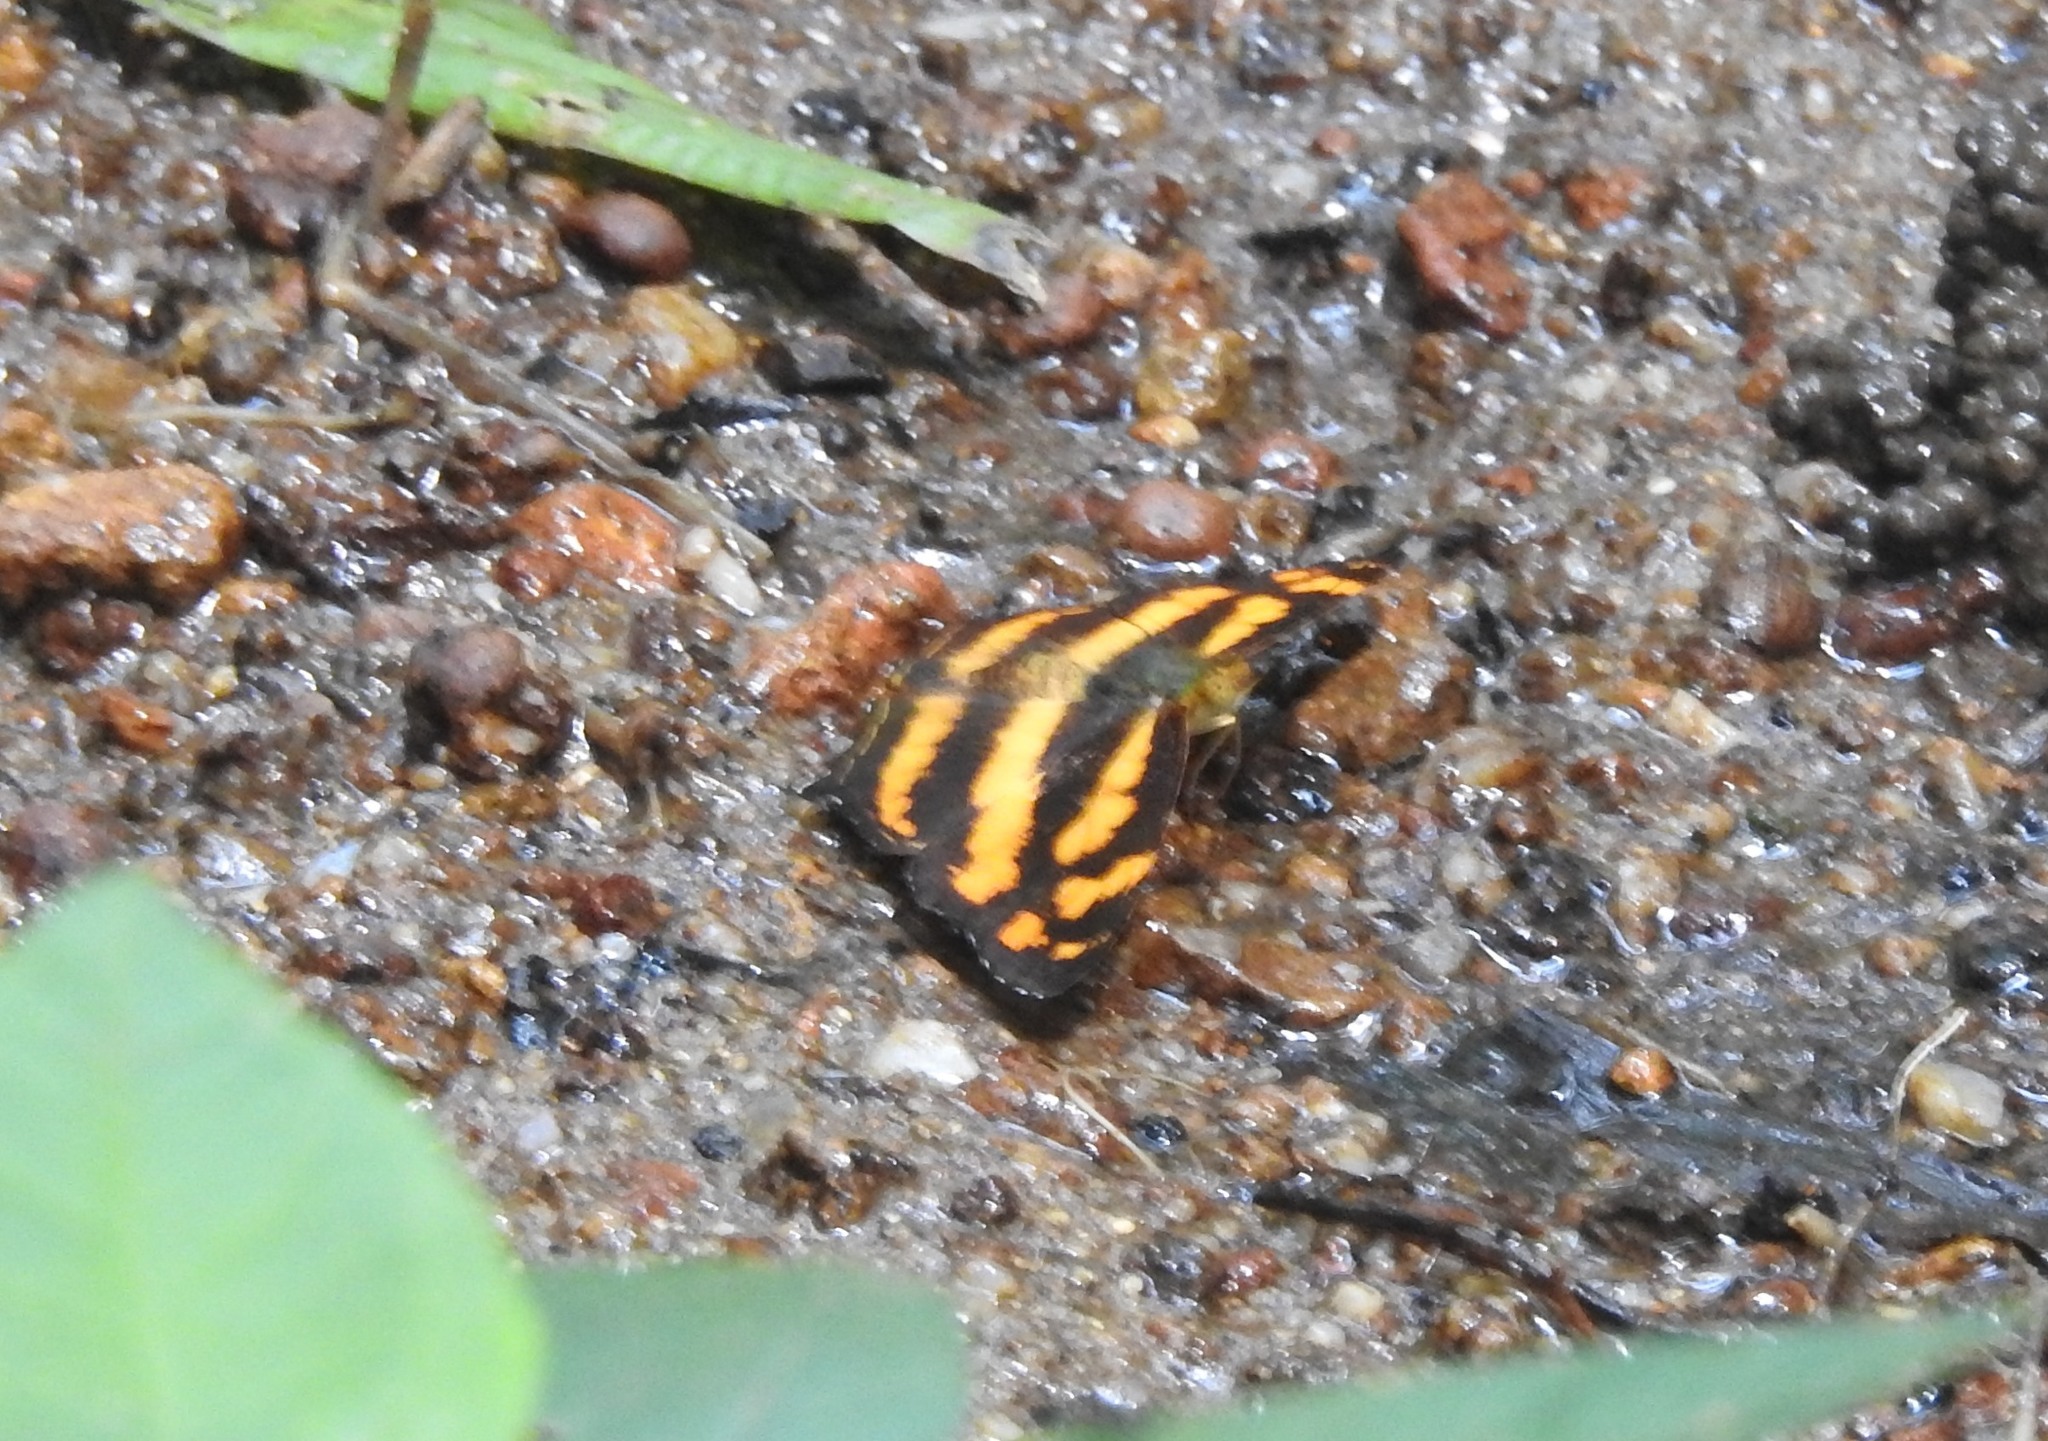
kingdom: Animalia
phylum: Arthropoda
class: Insecta
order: Lepidoptera
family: Nymphalidae
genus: Symbrenthia
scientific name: Symbrenthia hypselis
